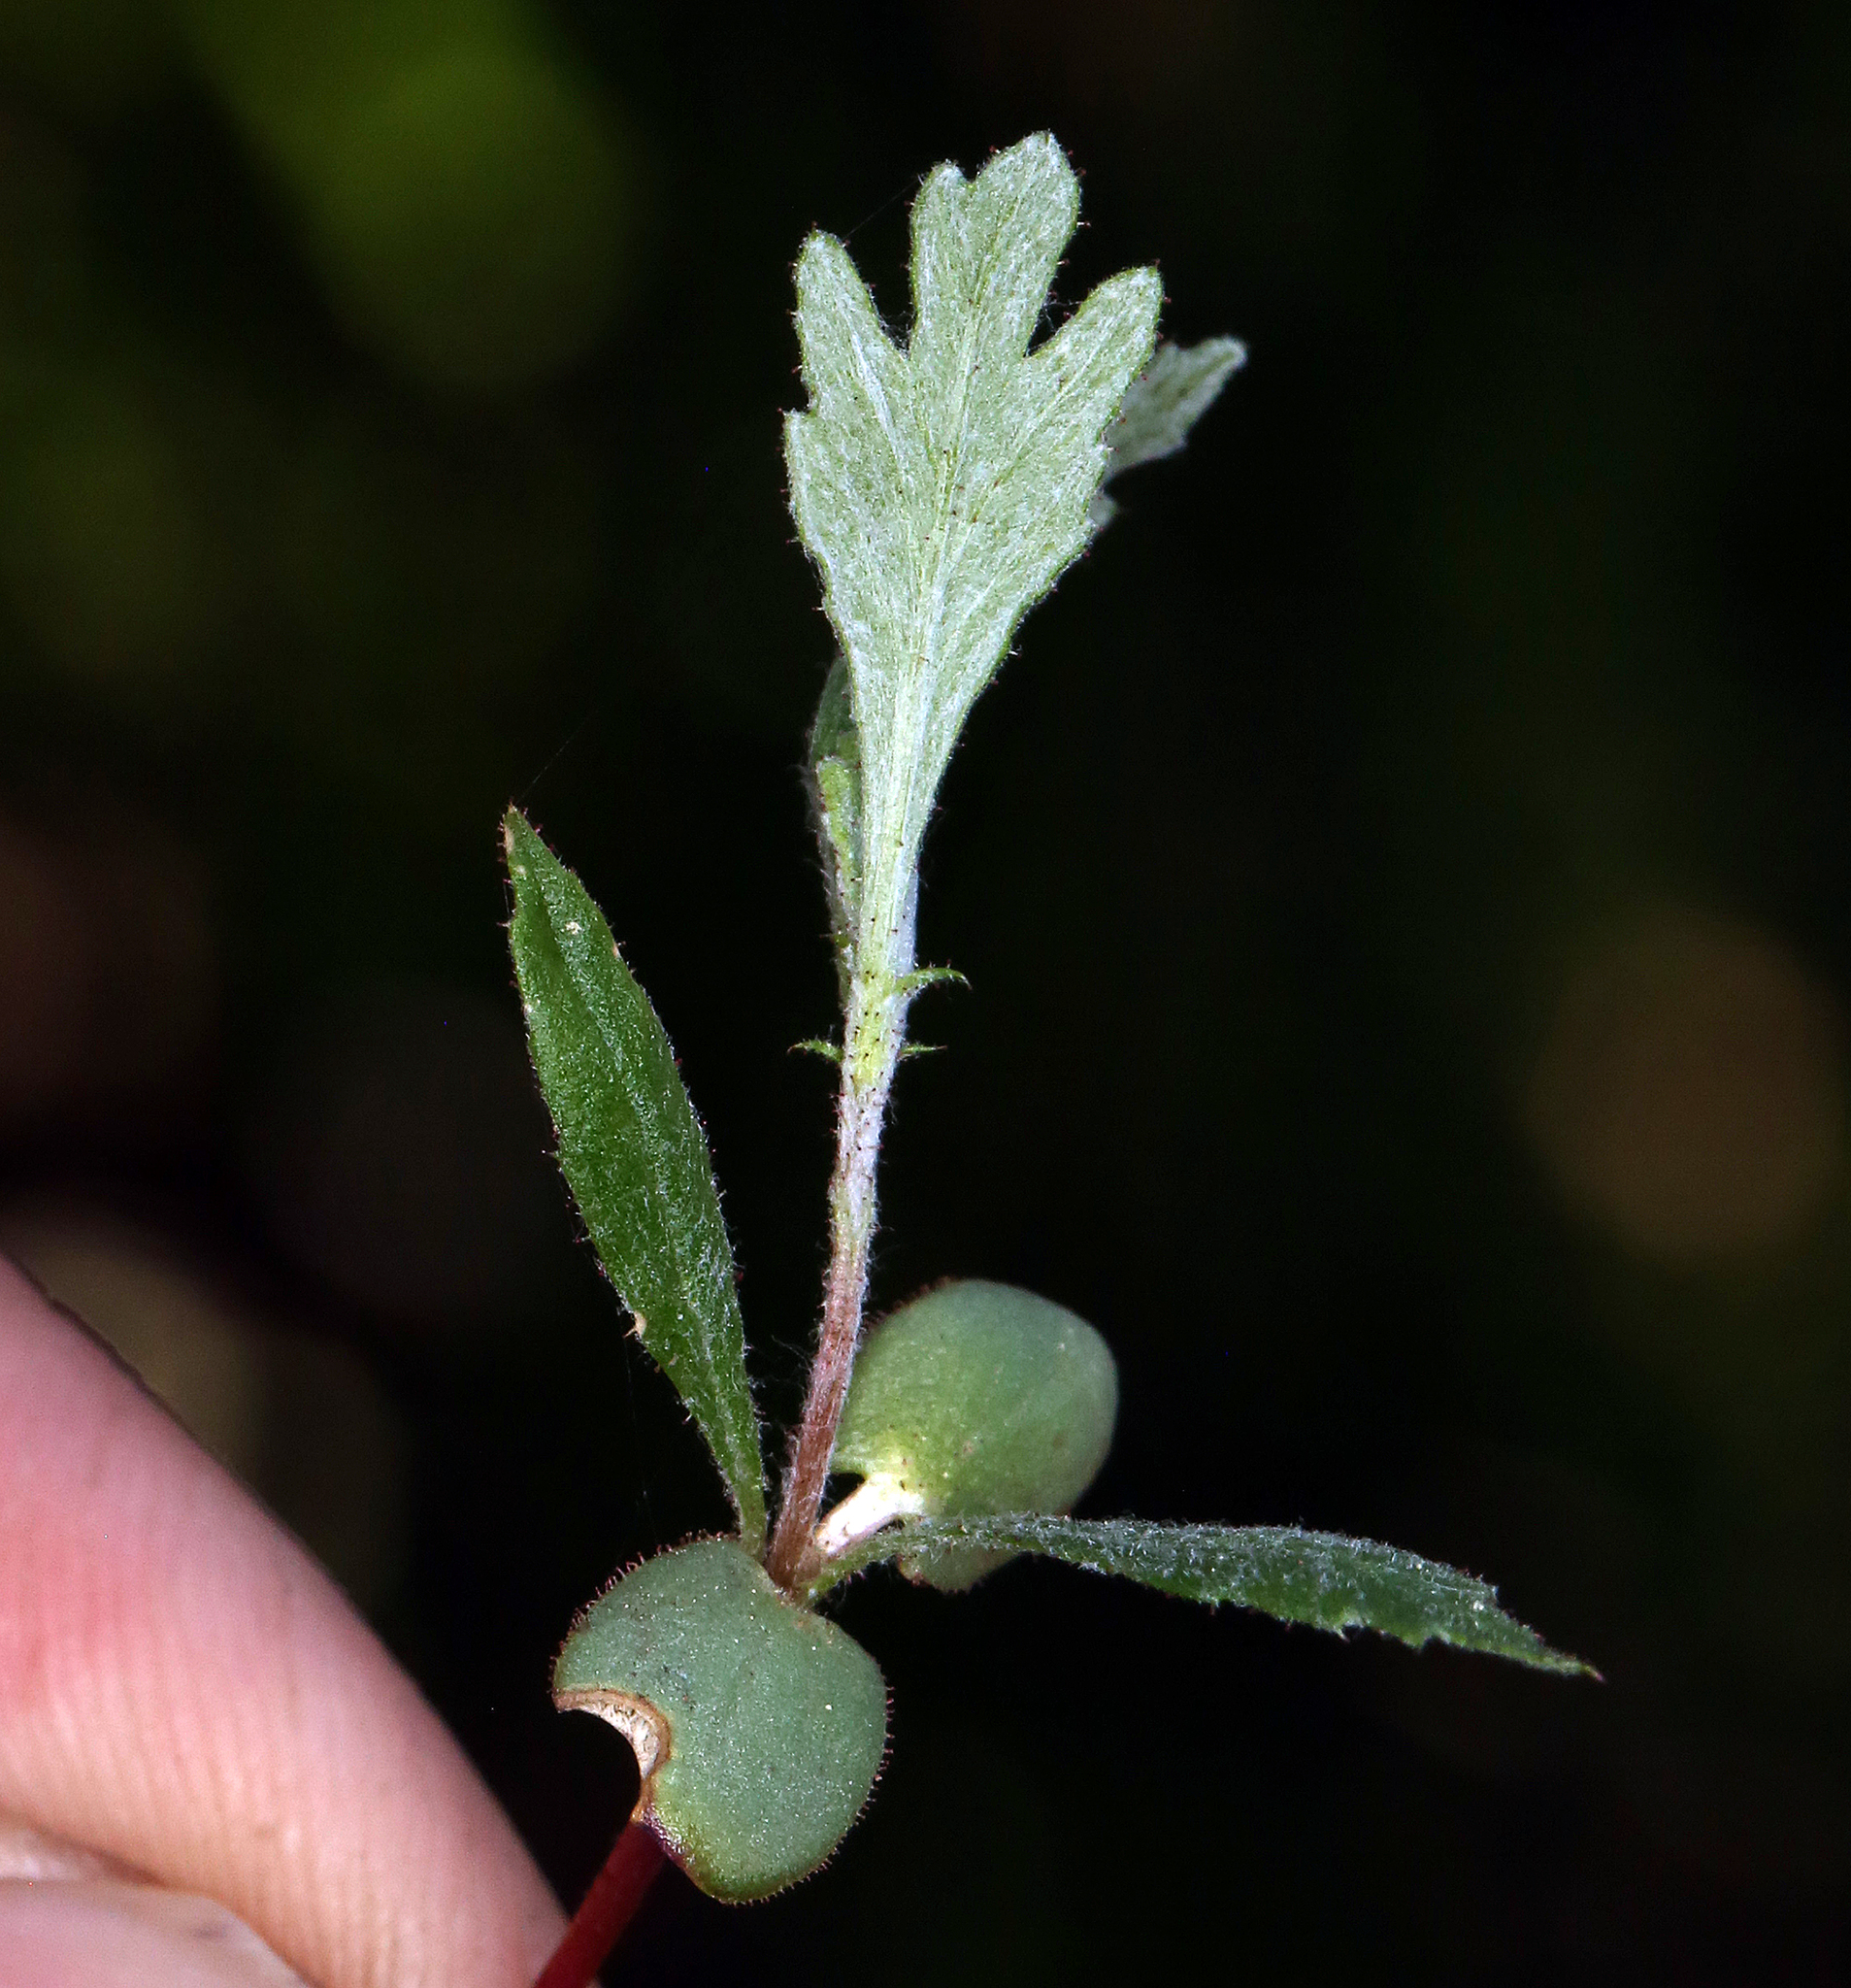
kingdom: Plantae
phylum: Tracheophyta
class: Magnoliopsida
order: Rosales
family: Rosaceae
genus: Purshia
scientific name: Purshia tridentata
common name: Antelope bitterbrush
